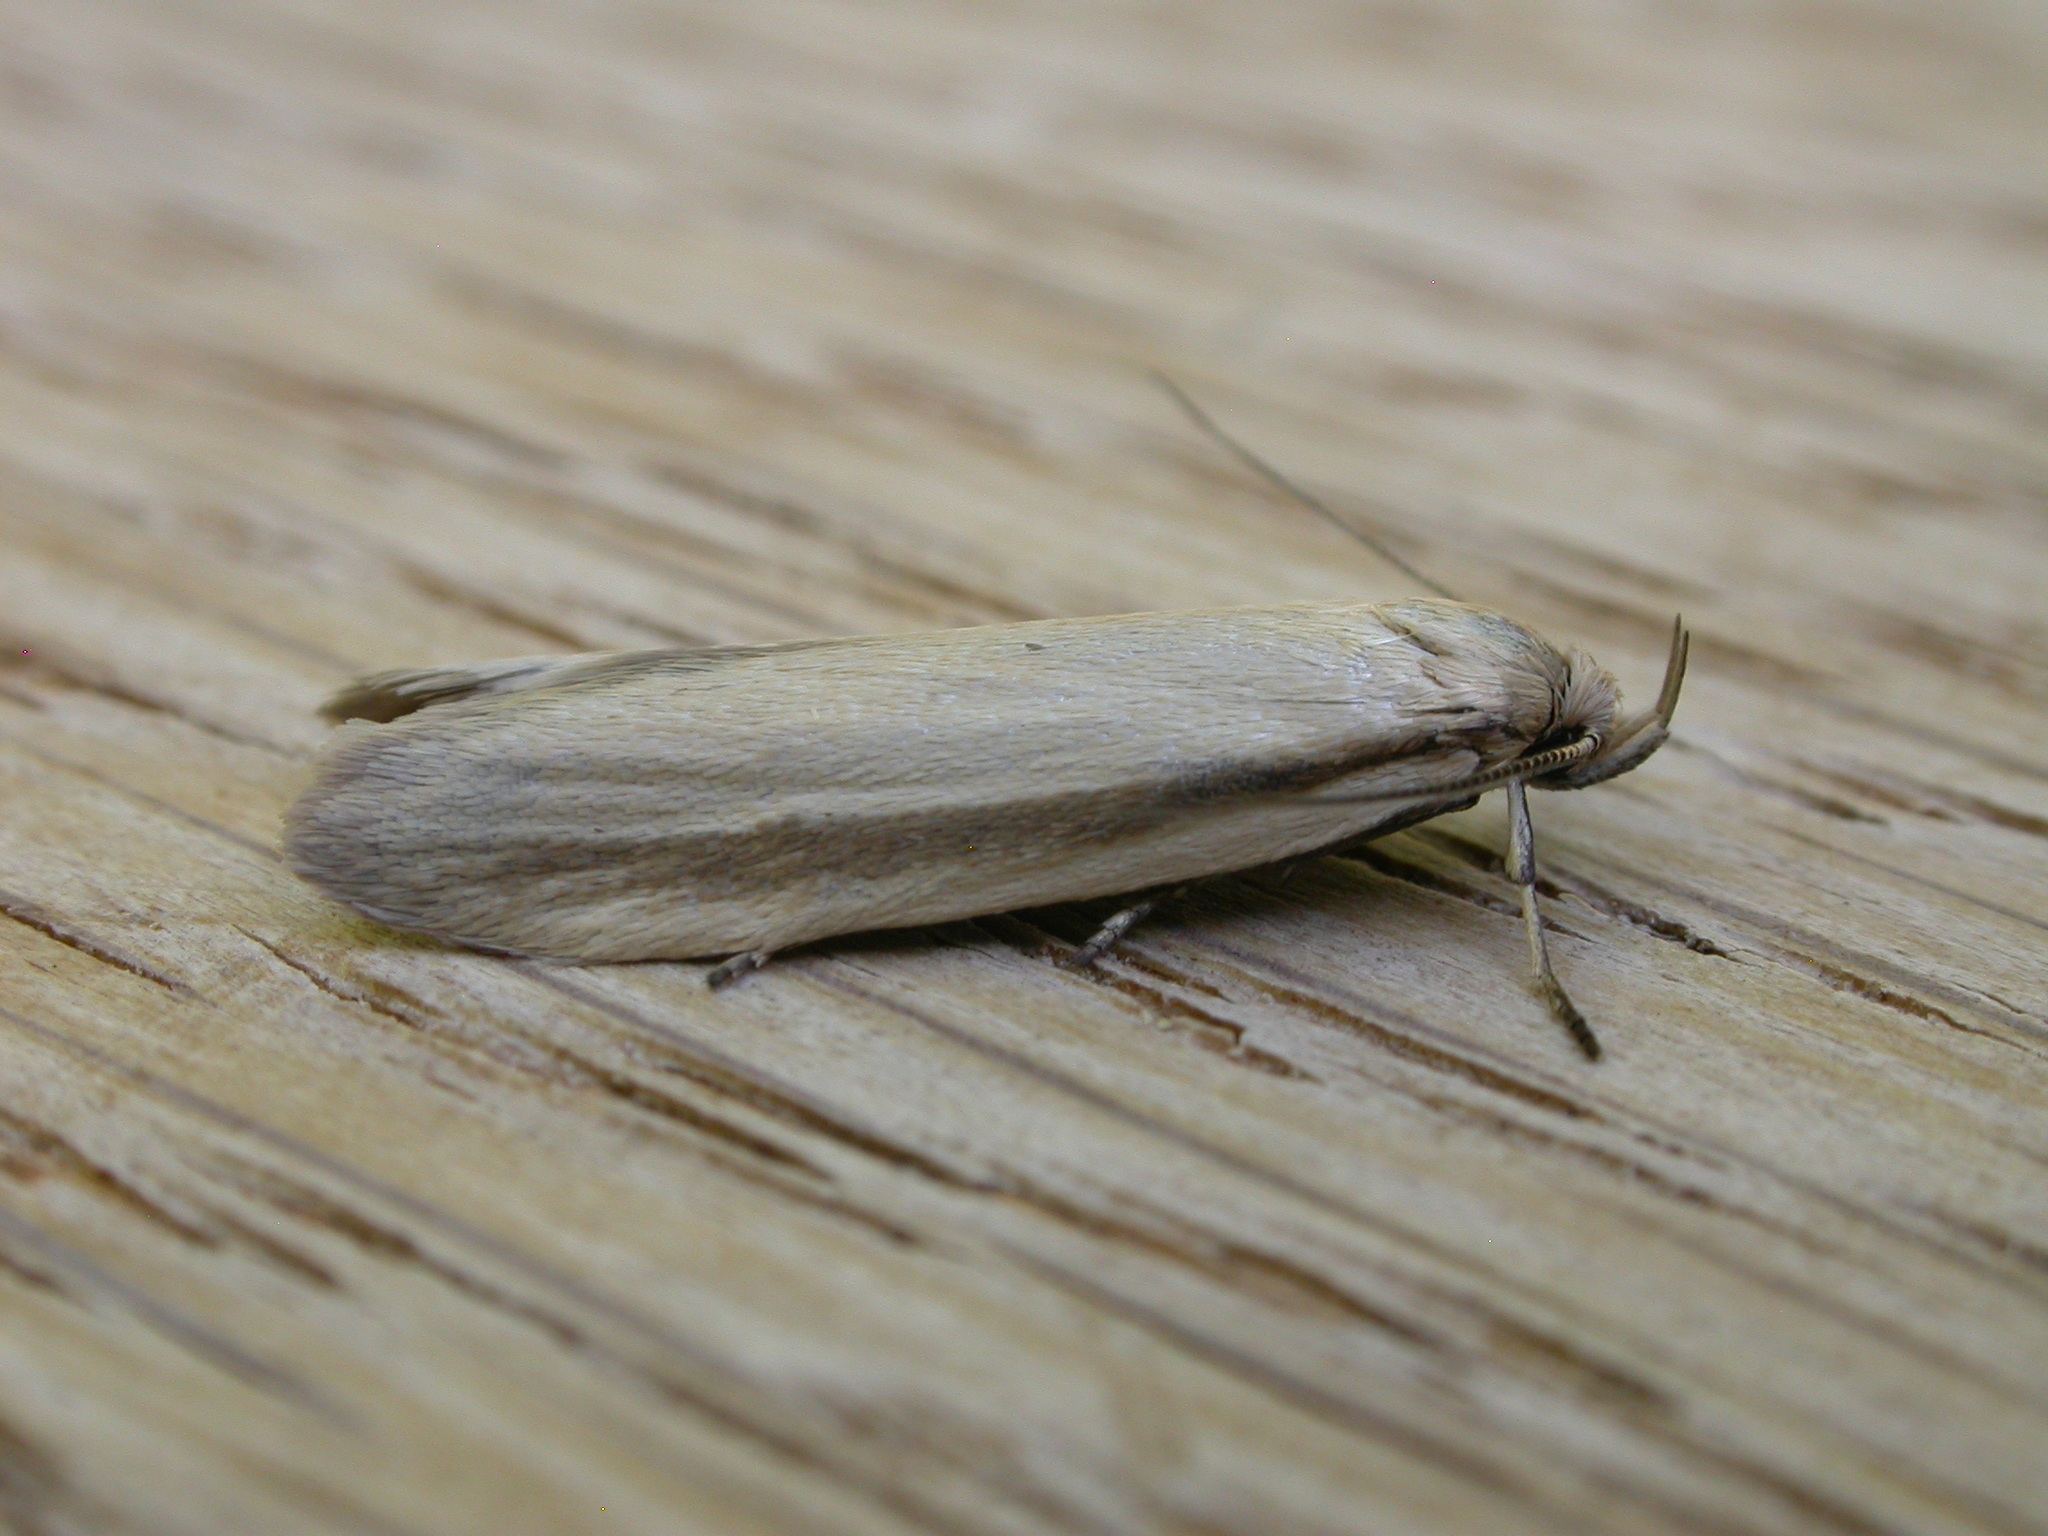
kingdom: Animalia
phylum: Arthropoda
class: Insecta
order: Lepidoptera
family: Oecophoridae
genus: Philobota
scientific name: Philobota pilipes
